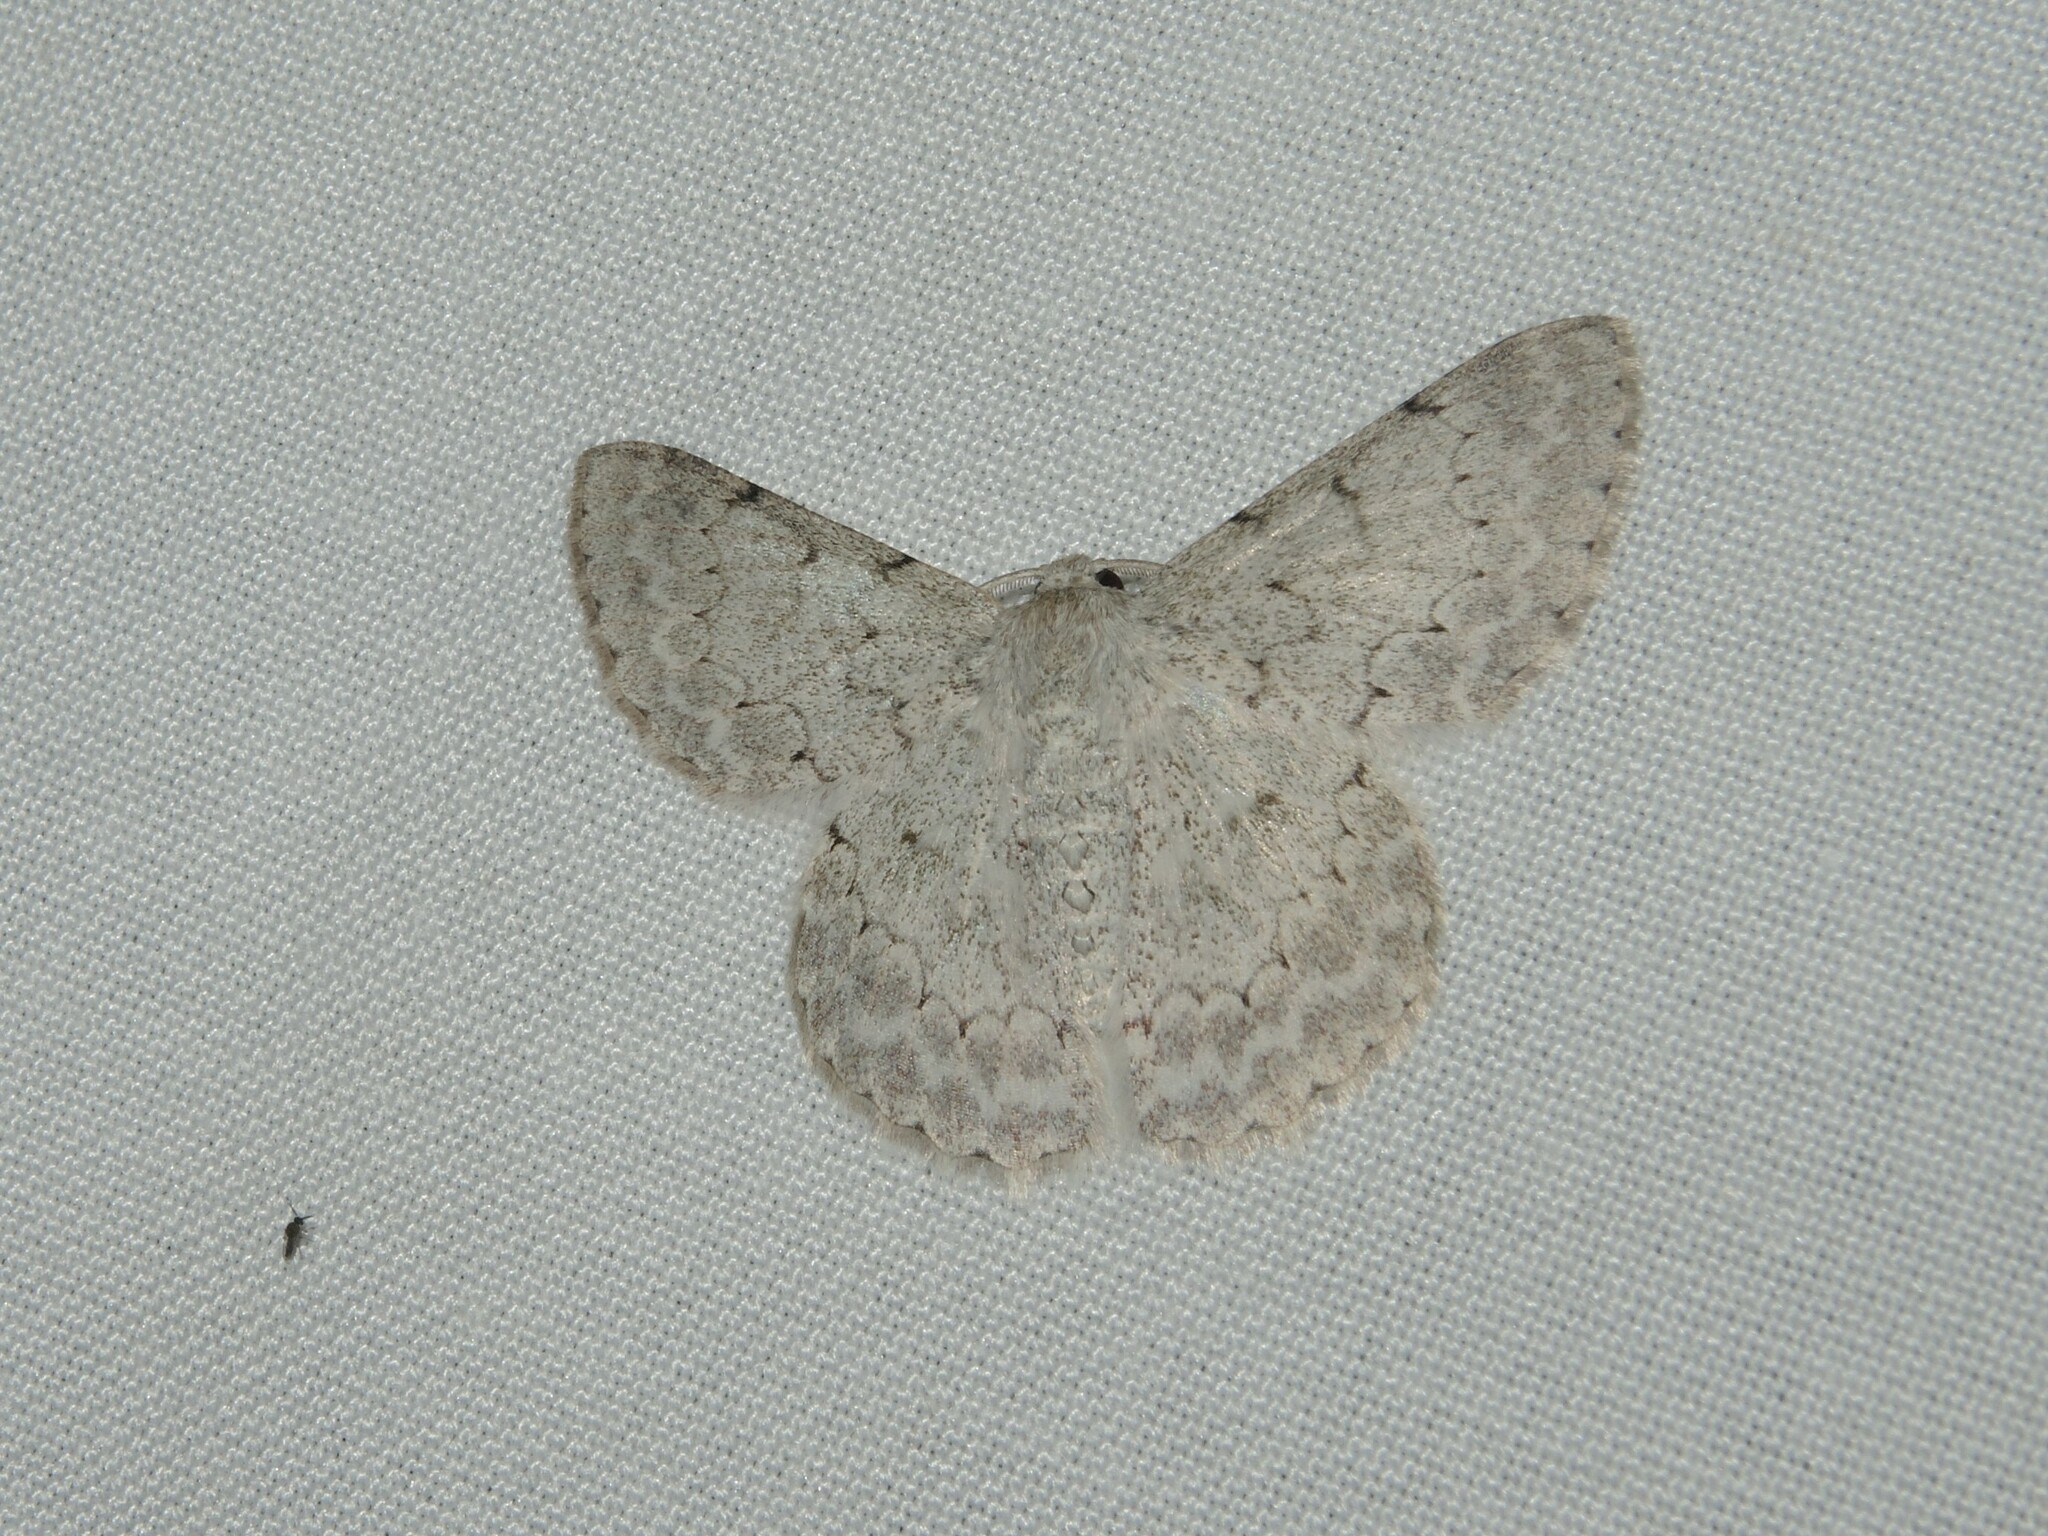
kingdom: Animalia
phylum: Arthropoda
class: Insecta
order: Lepidoptera
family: Geometridae
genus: Pingasa
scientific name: Pingasa chlora
